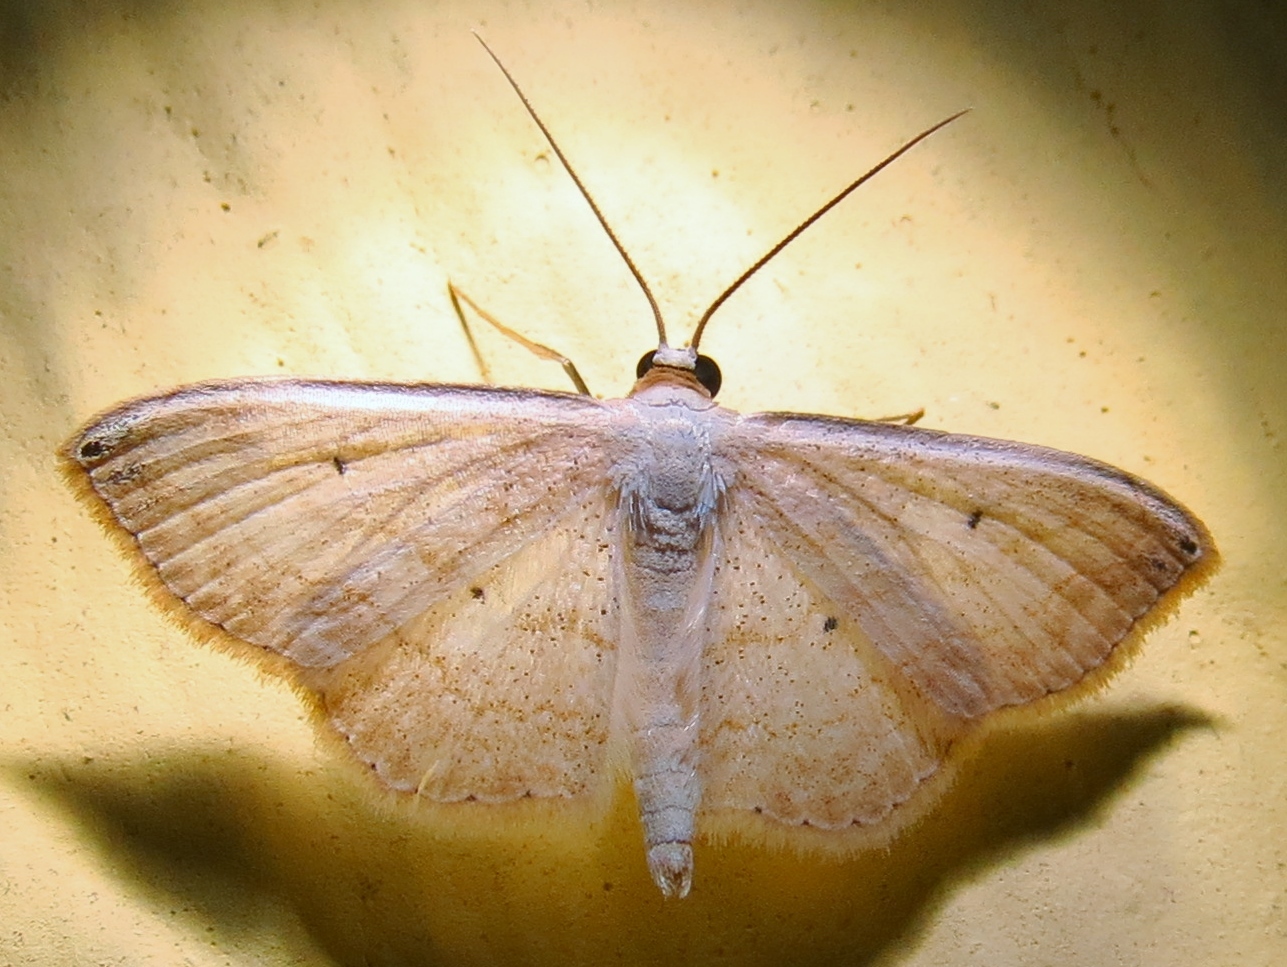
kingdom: Animalia
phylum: Arthropoda
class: Insecta
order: Lepidoptera
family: Geometridae
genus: Scopula
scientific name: Scopula umbilicata
